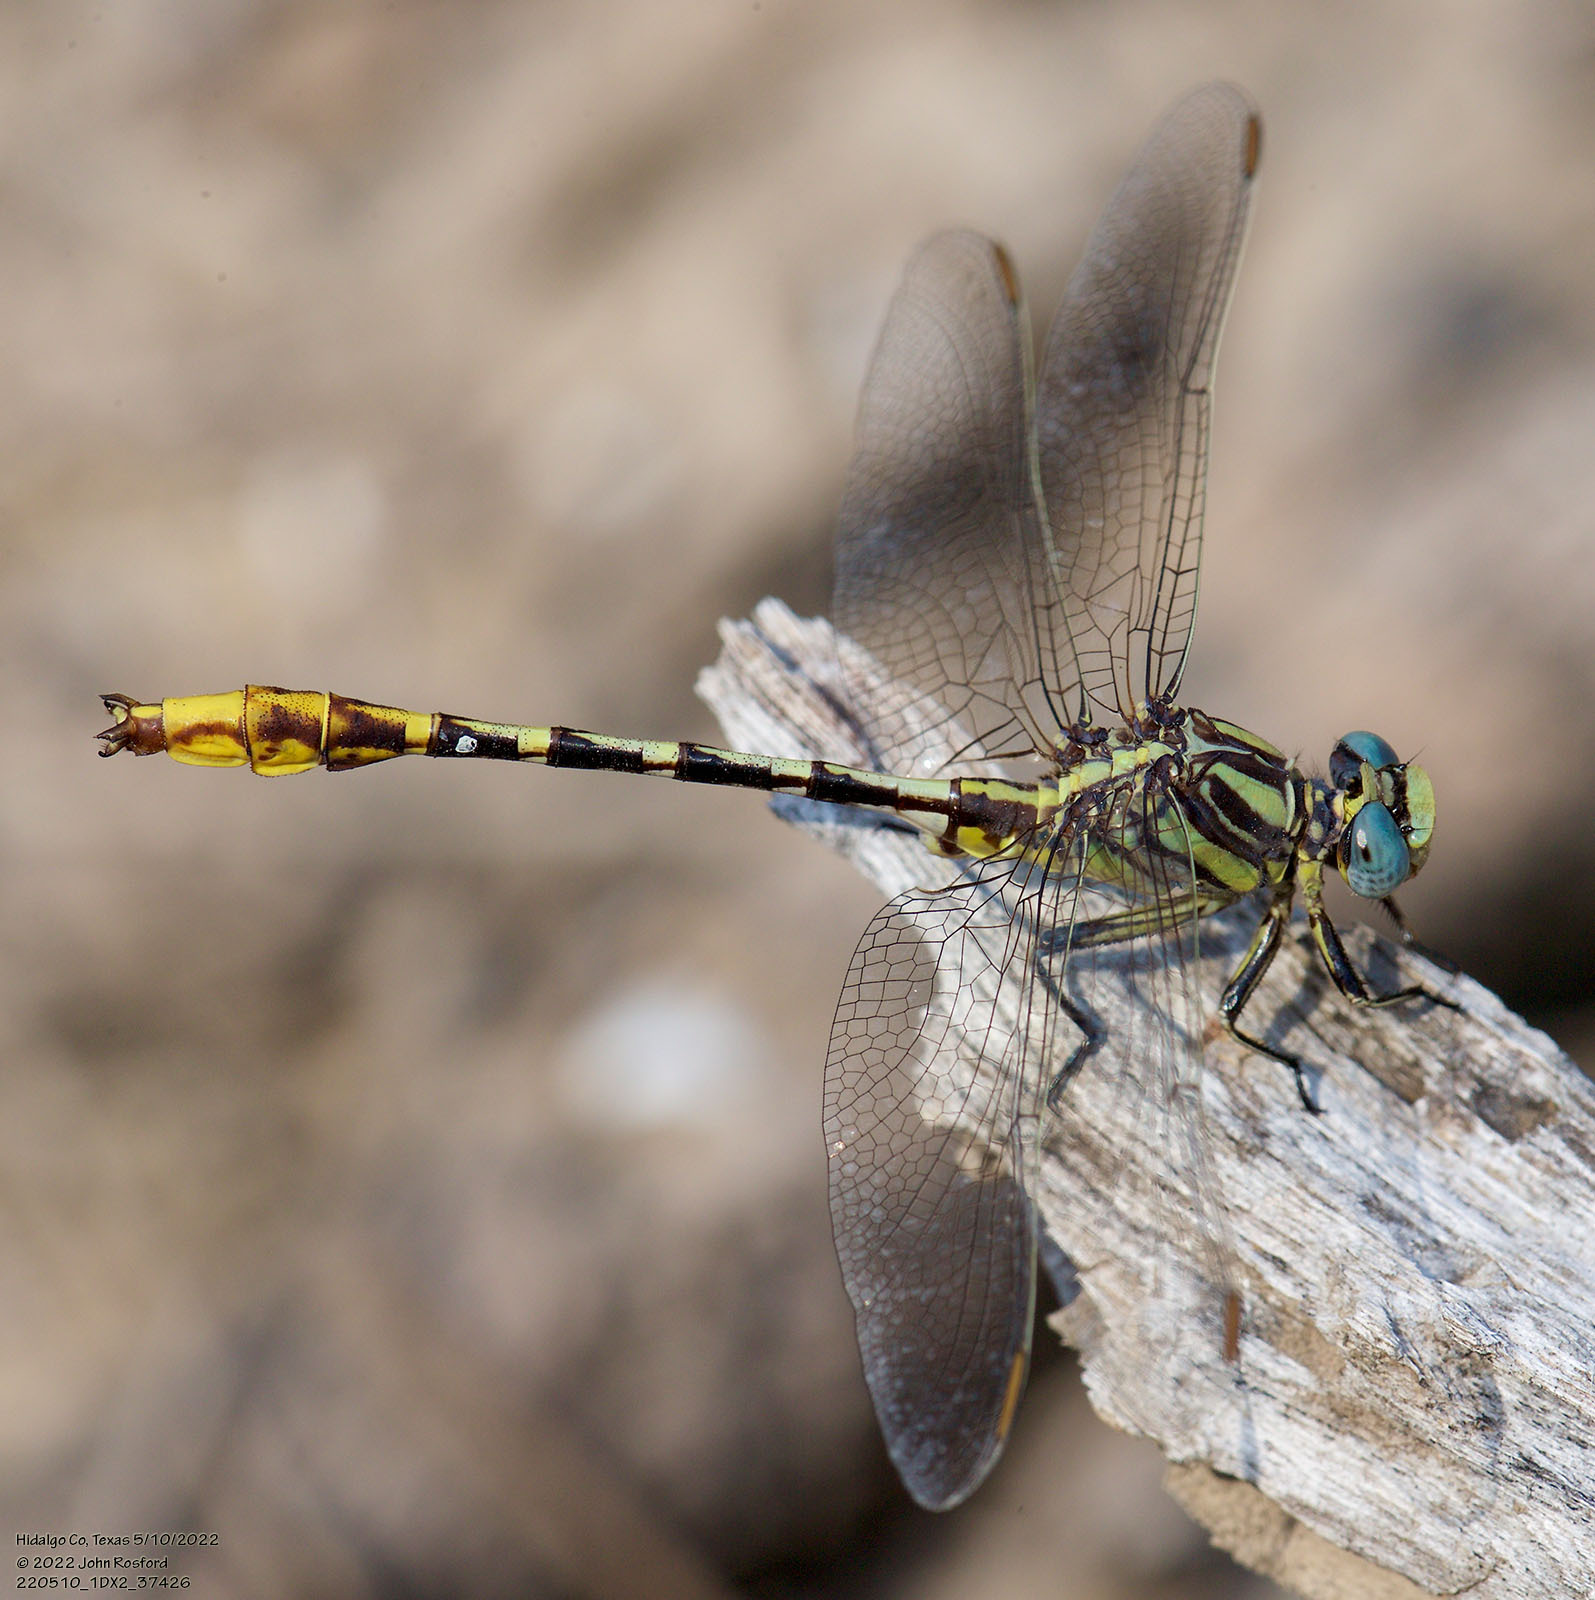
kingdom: Animalia
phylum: Arthropoda
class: Insecta
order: Odonata
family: Gomphidae
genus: Phanogomphus
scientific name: Phanogomphus militaris
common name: Sulphur-tipped clubtail
